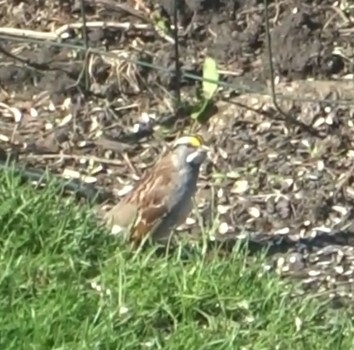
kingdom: Animalia
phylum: Chordata
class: Aves
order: Passeriformes
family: Passerellidae
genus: Zonotrichia
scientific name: Zonotrichia albicollis
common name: White-throated sparrow
